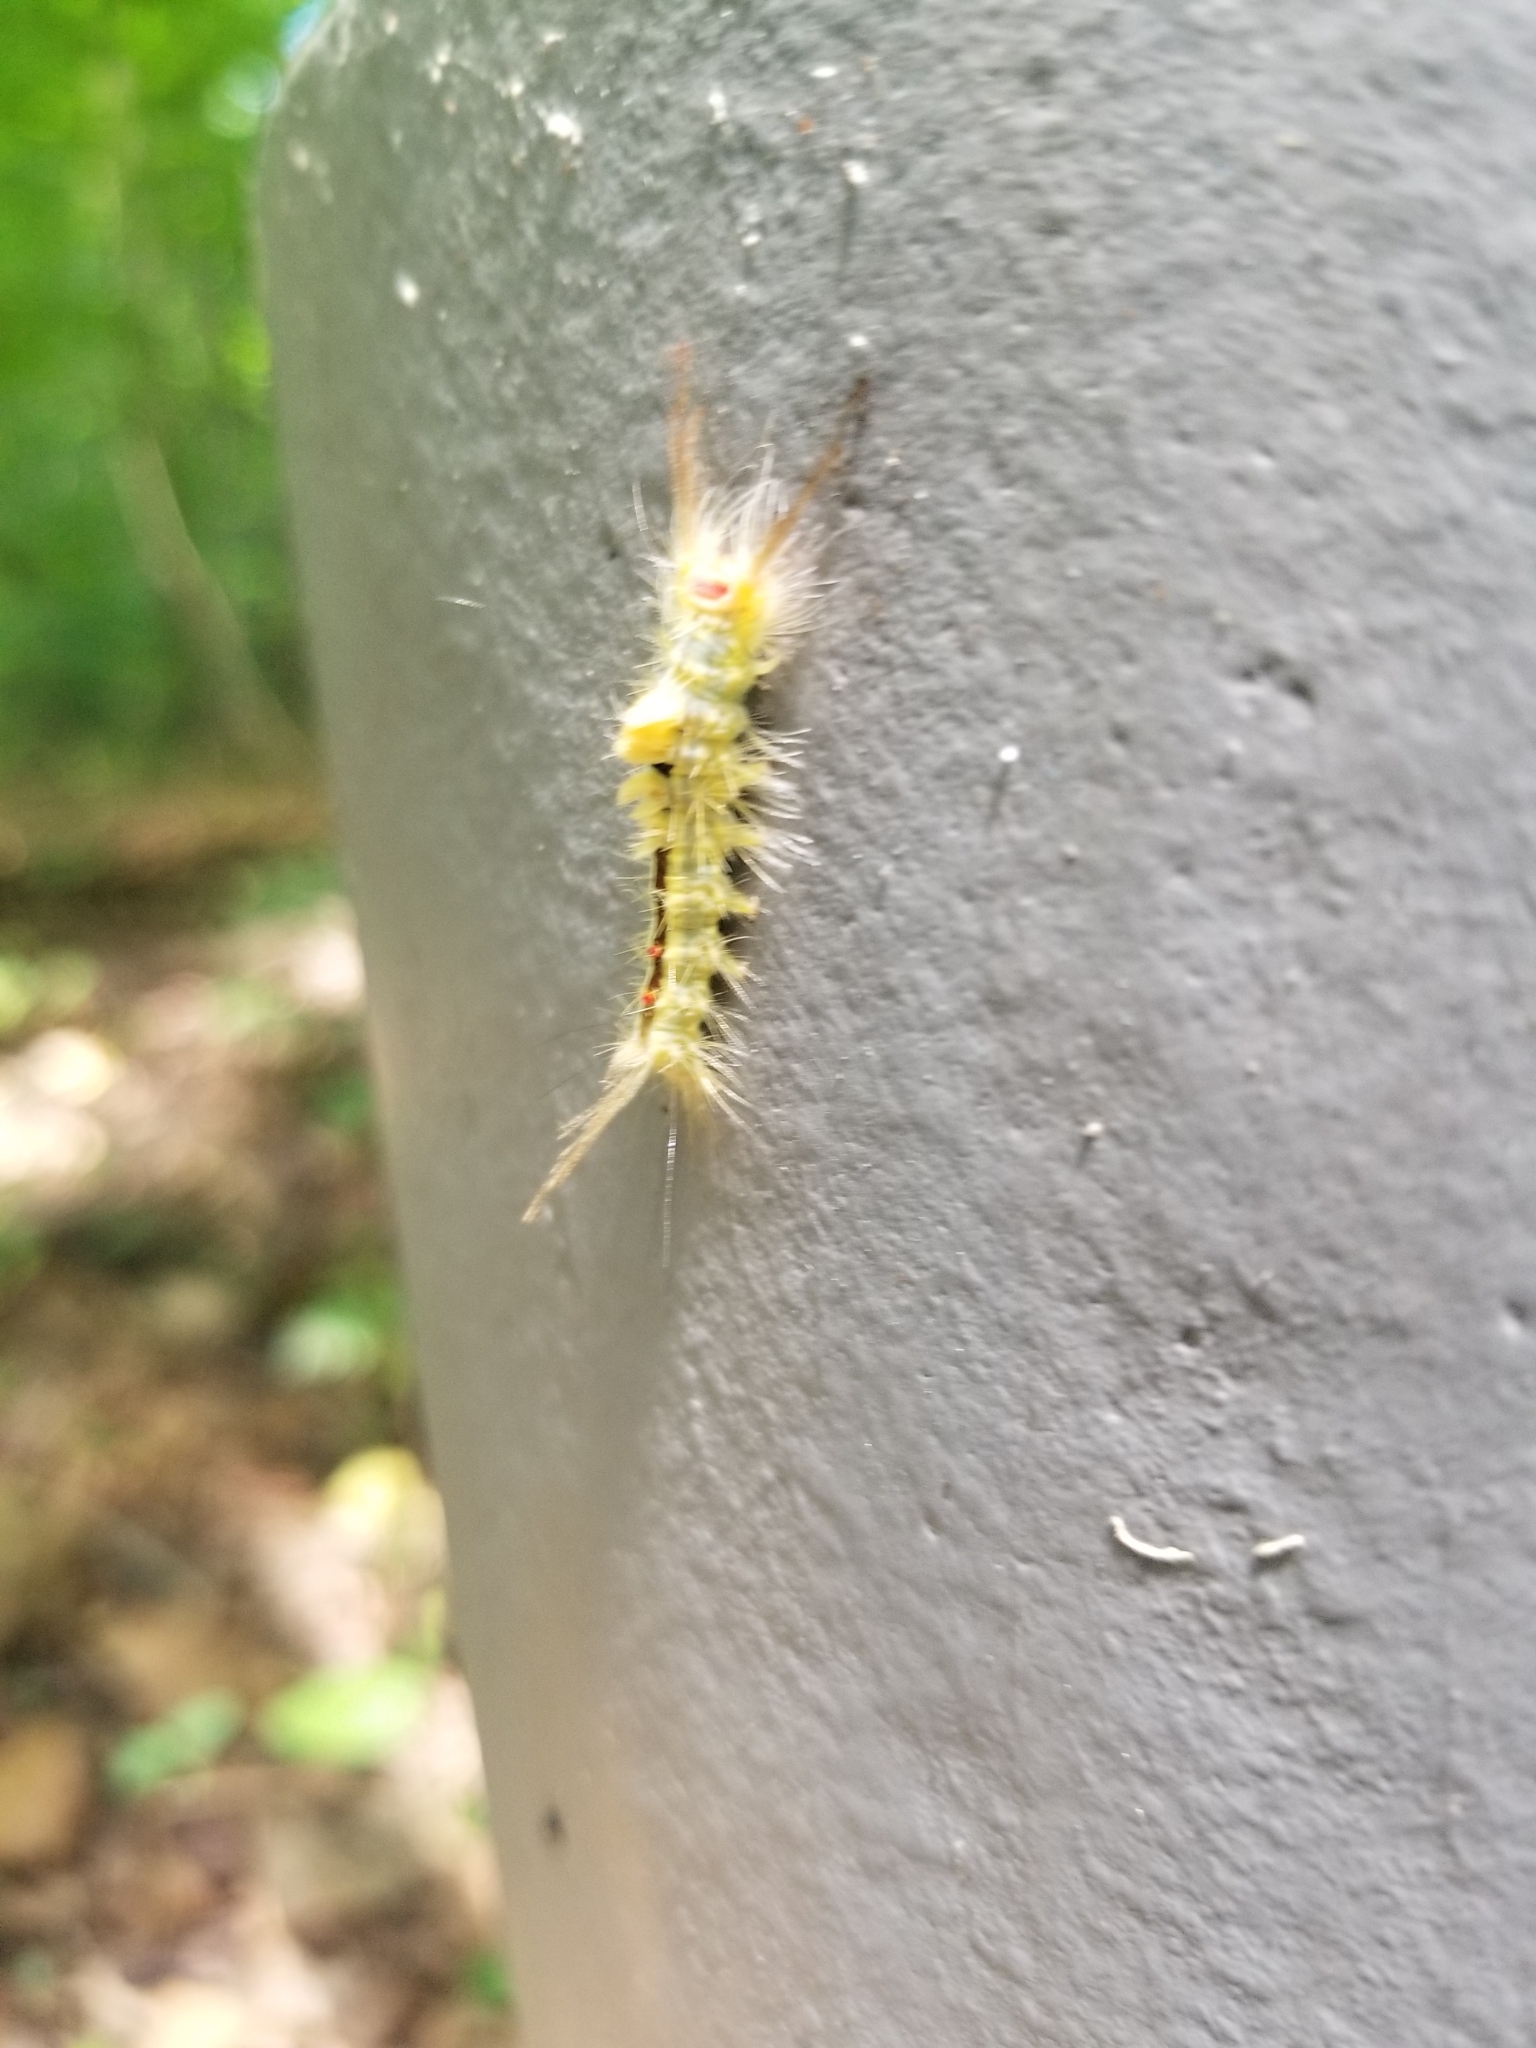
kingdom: Animalia
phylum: Arthropoda
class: Insecta
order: Lepidoptera
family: Erebidae
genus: Orgyia
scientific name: Orgyia leucostigma
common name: White-marked tussock moth
